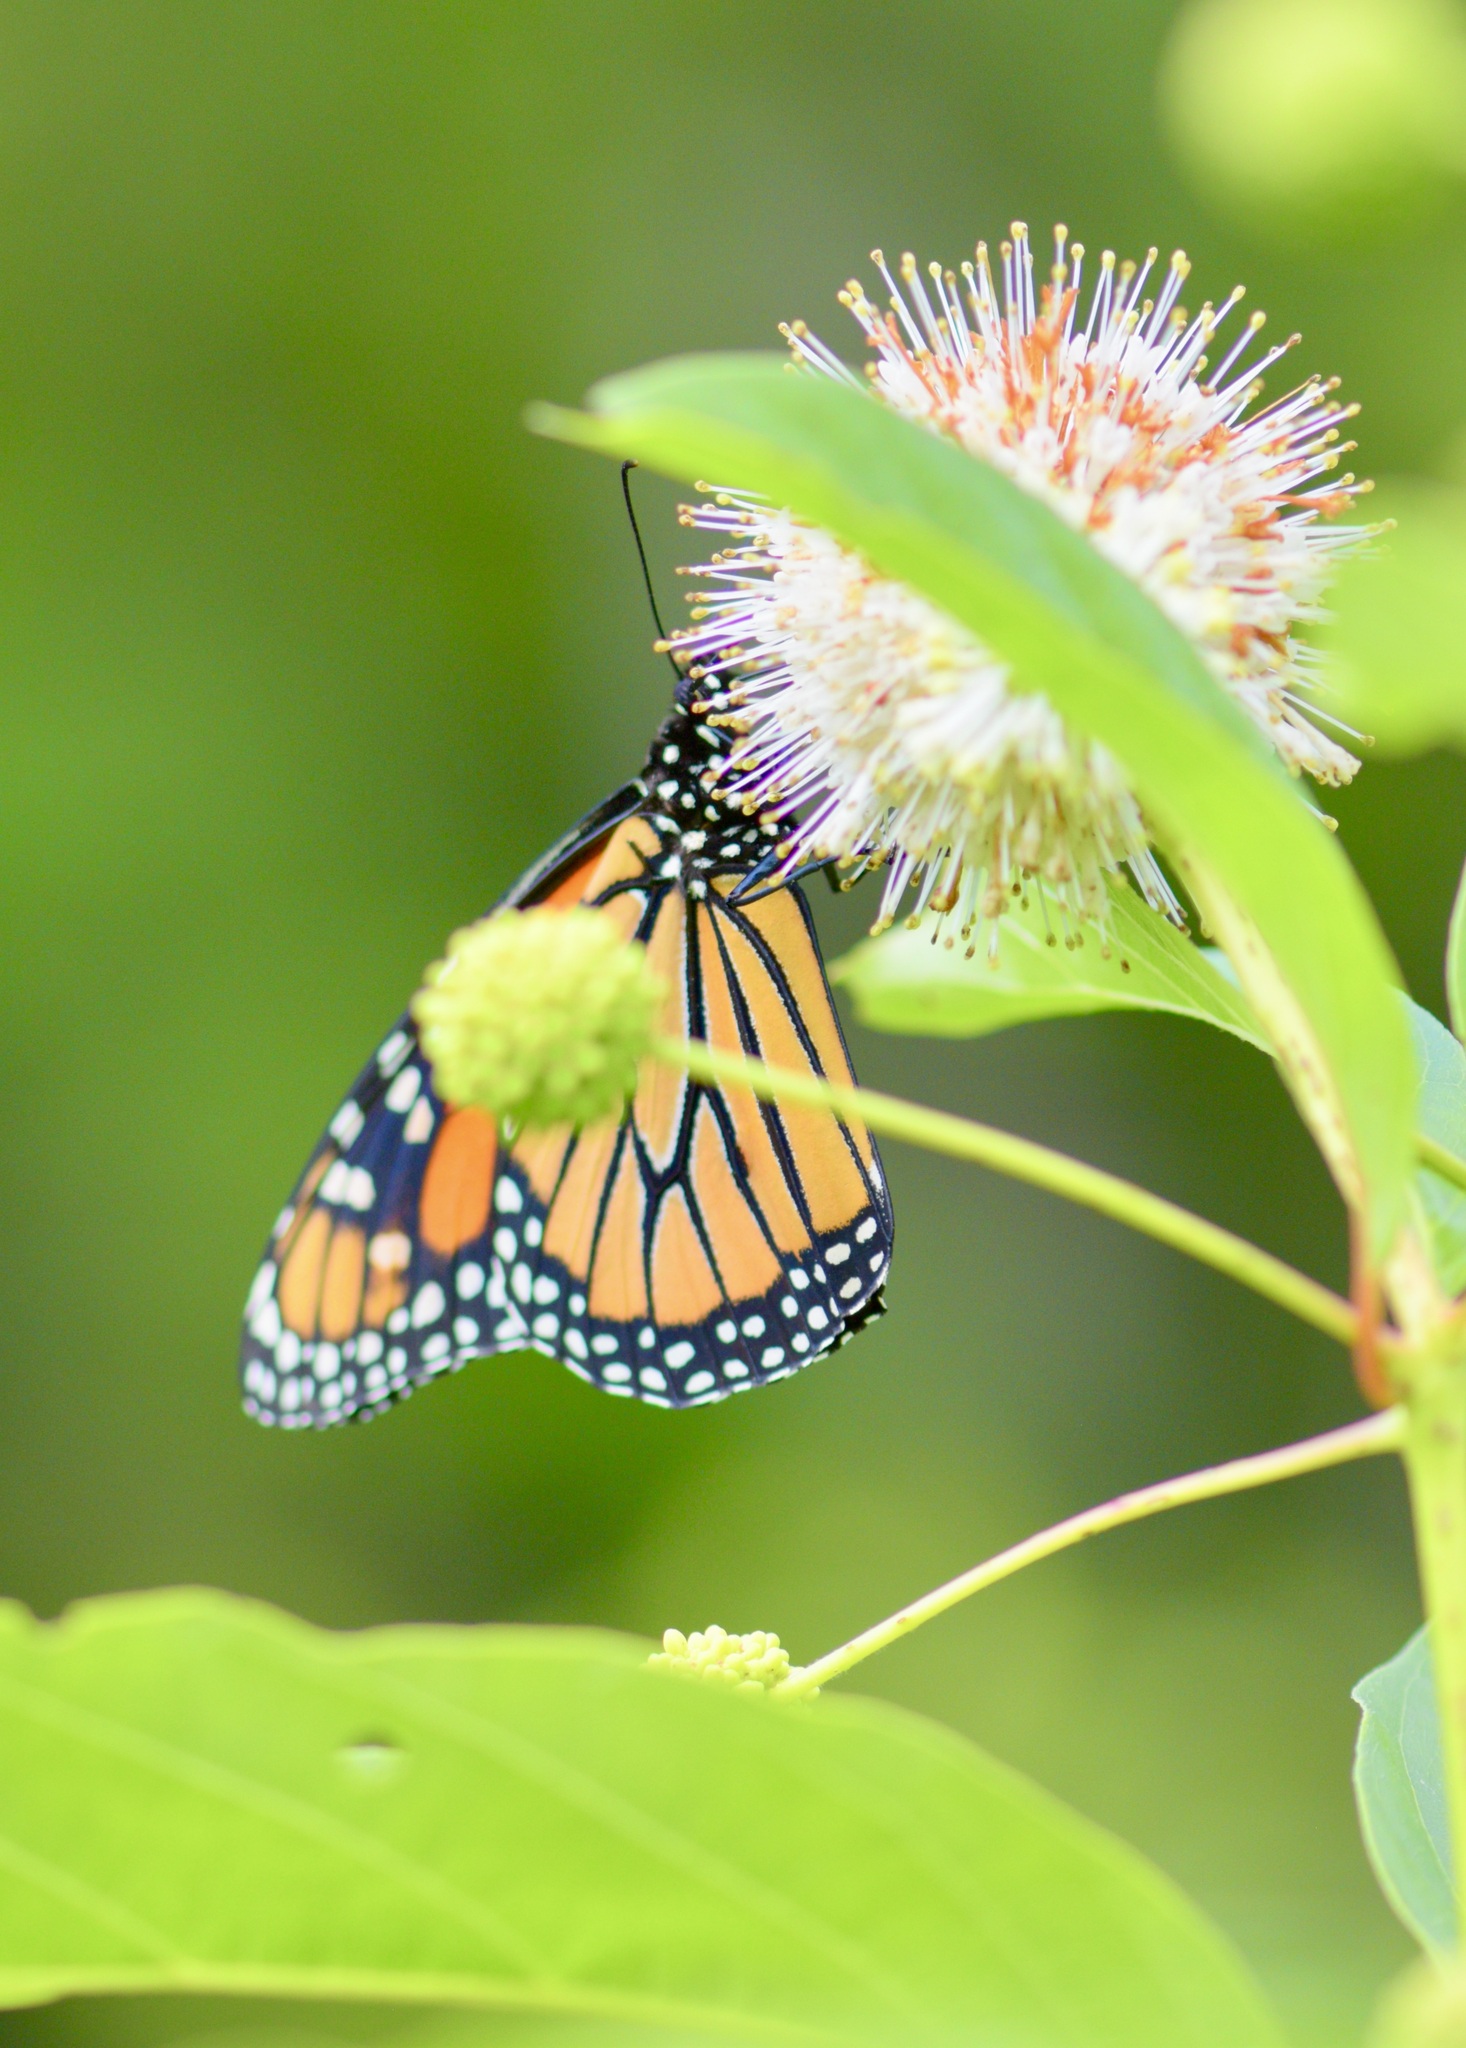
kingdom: Animalia
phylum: Arthropoda
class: Insecta
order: Lepidoptera
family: Nymphalidae
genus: Danaus
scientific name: Danaus plexippus
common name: Monarch
